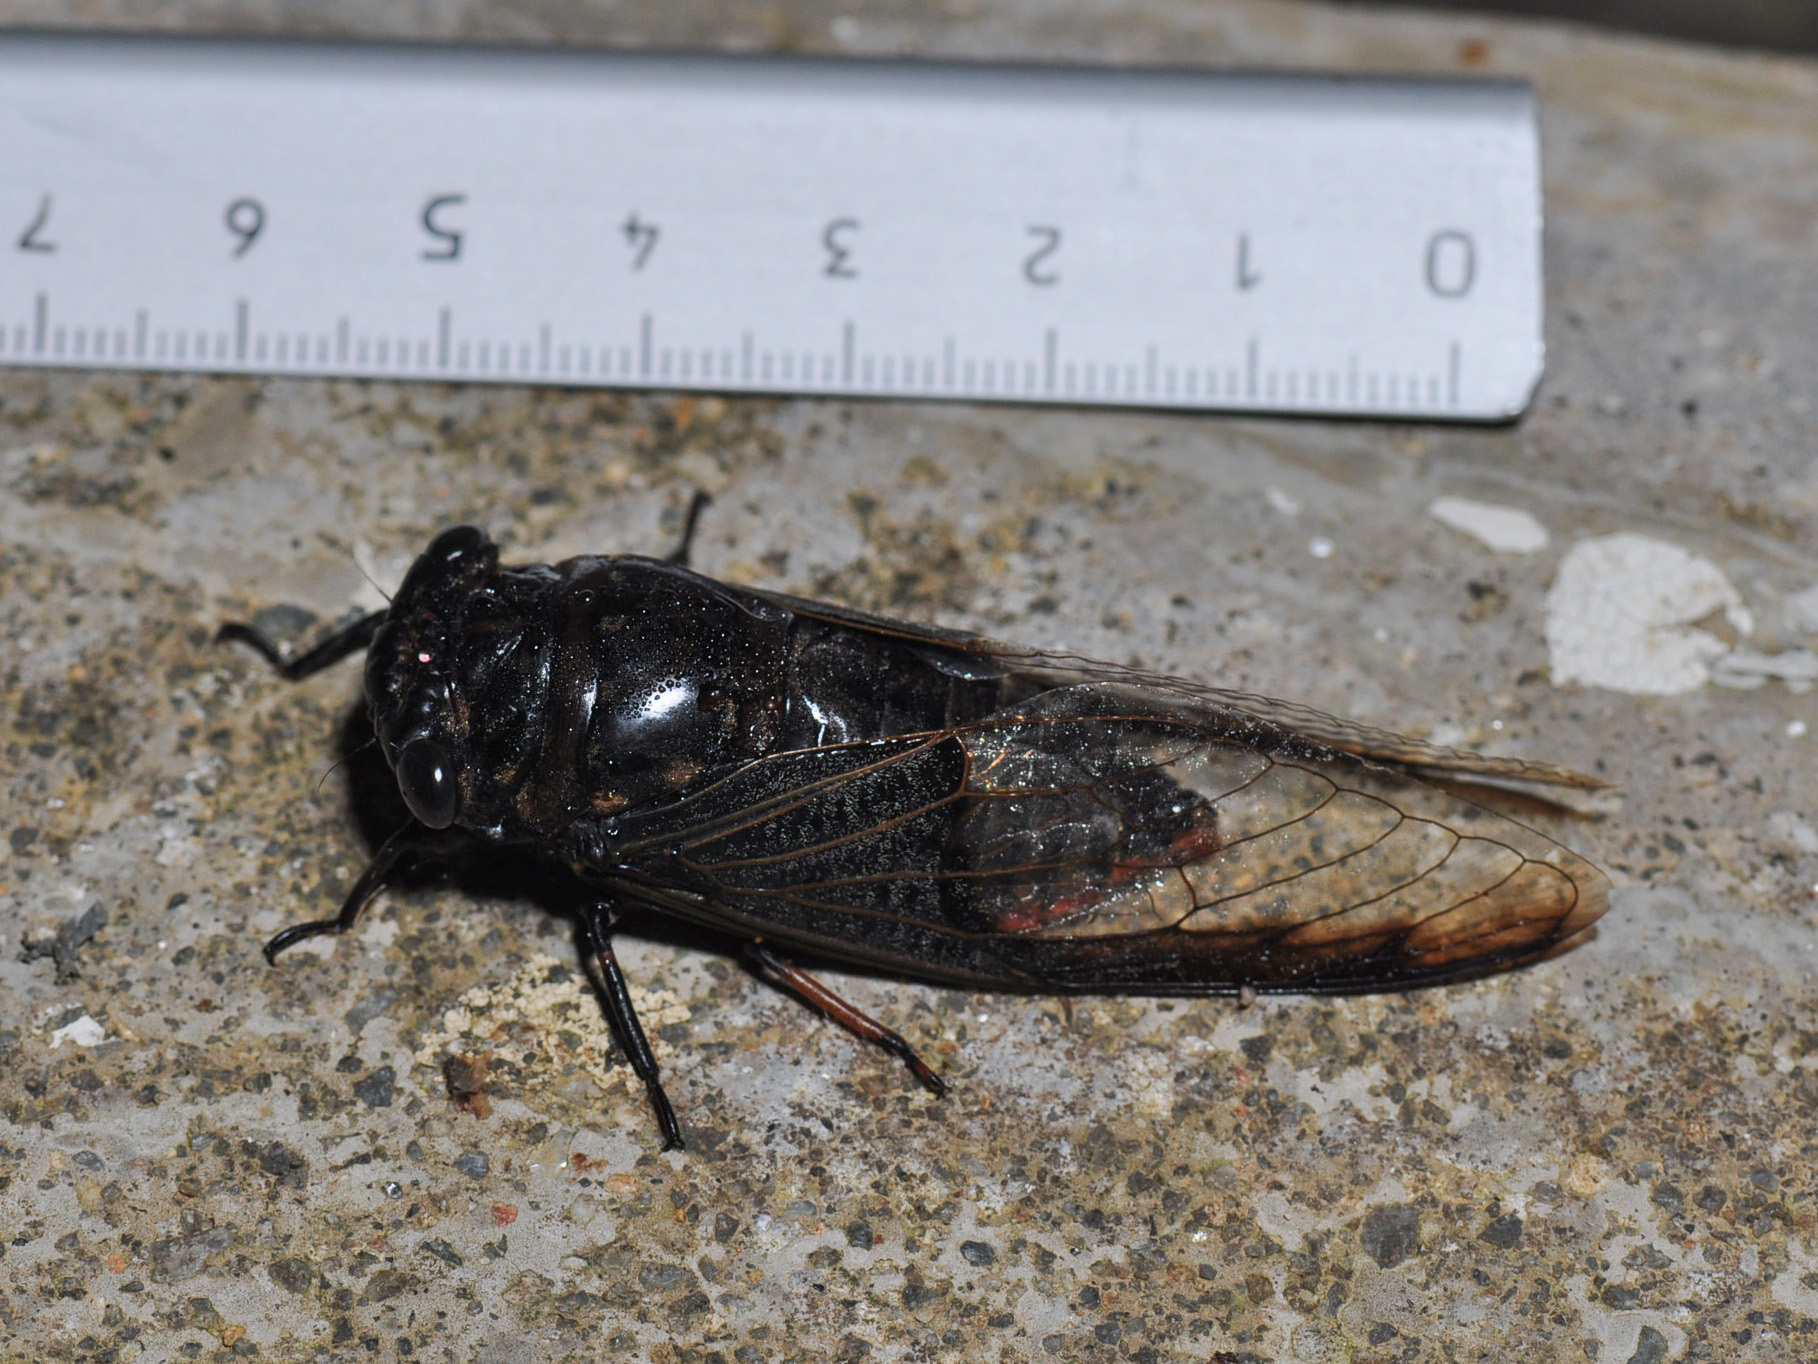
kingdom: Animalia
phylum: Arthropoda
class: Insecta
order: Hemiptera
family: Cicadidae
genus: Cryptotympana
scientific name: Cryptotympana aquila
